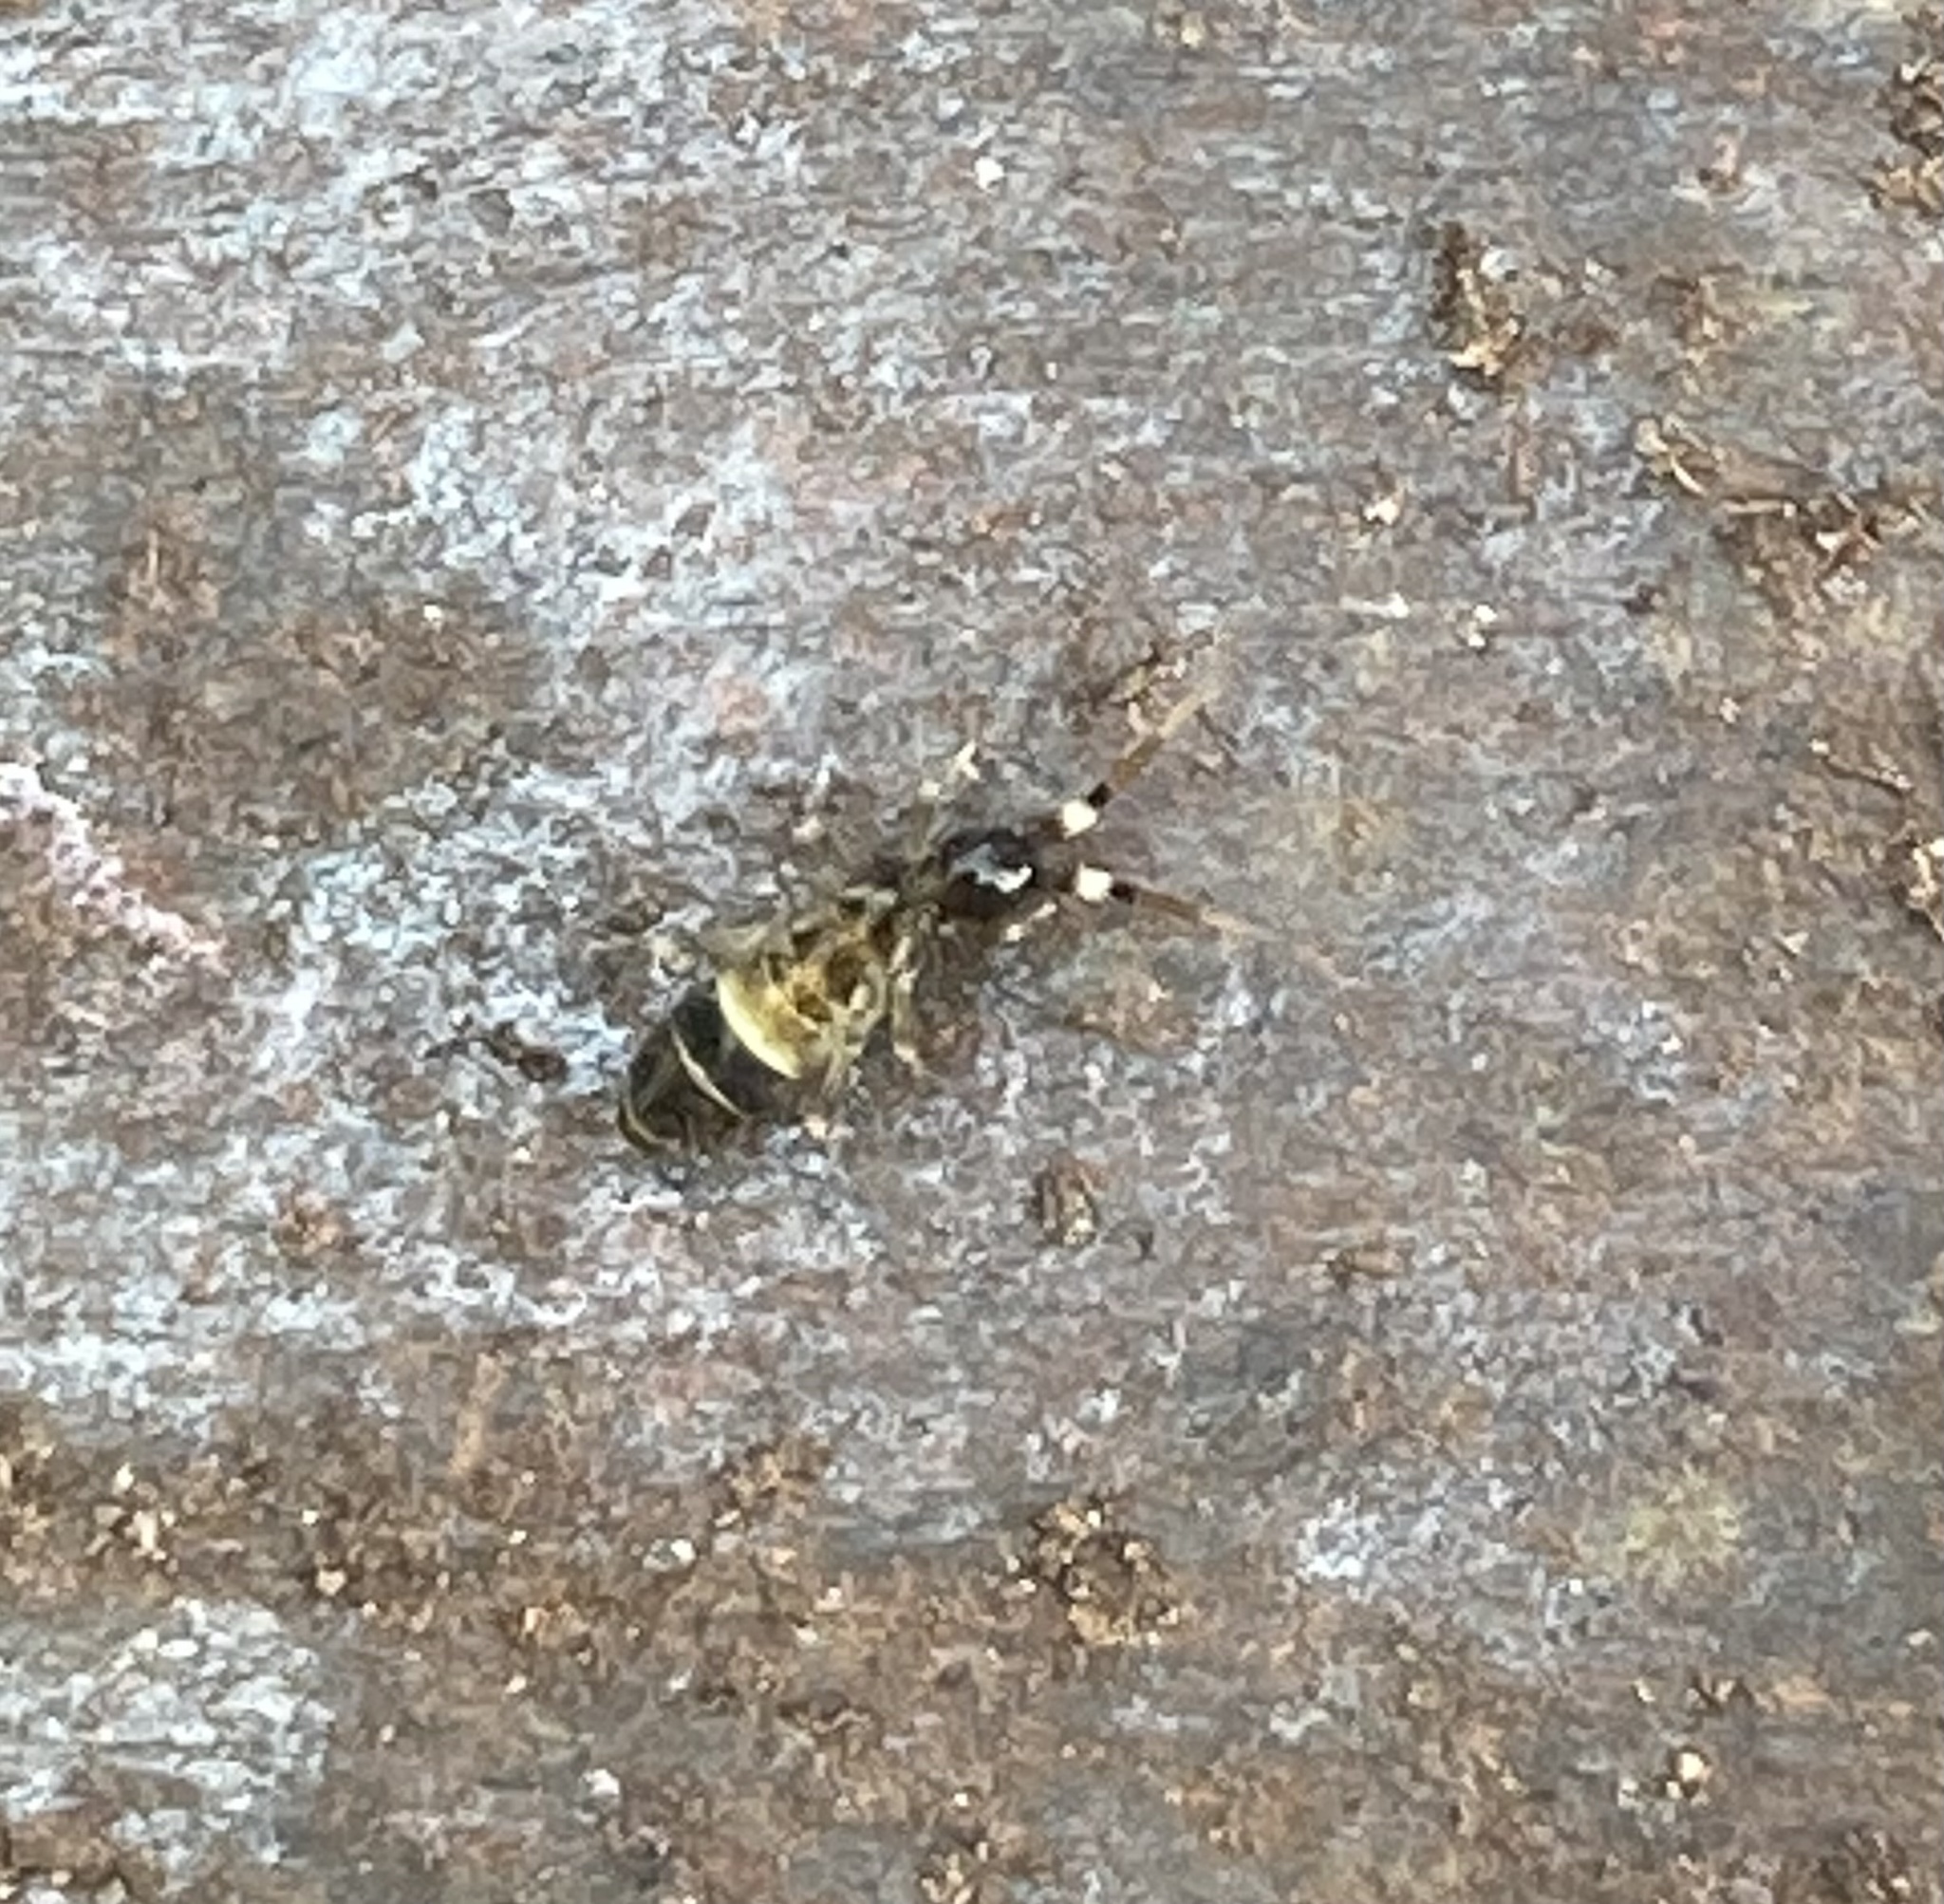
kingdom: Animalia
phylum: Arthropoda
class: Collembola
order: Entomobryomorpha
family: Orchesellidae
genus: Orchesella
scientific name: Orchesella cincta
